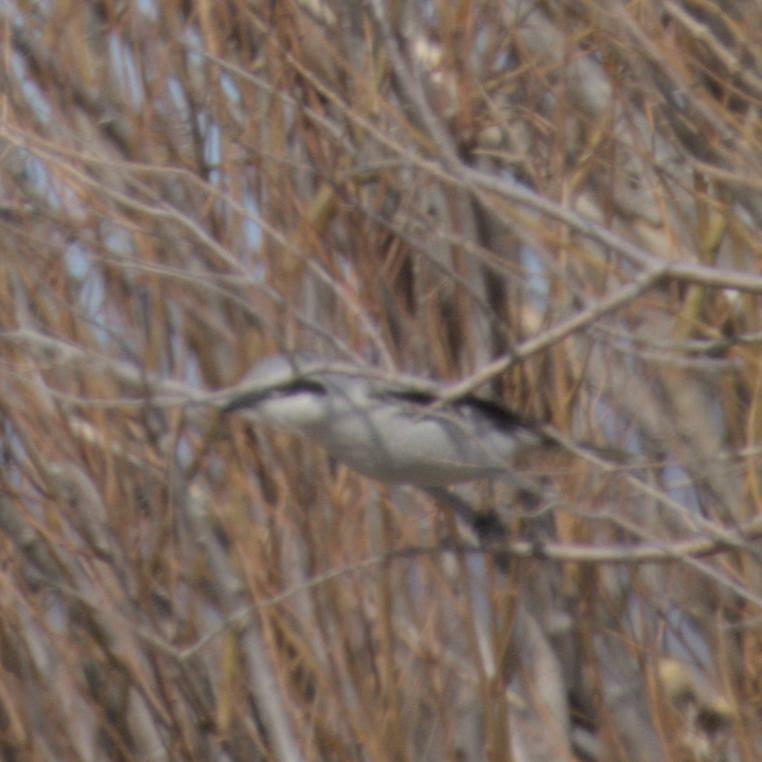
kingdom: Animalia
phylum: Chordata
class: Aves
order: Passeriformes
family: Laniidae
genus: Lanius
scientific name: Lanius borealis
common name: Northern shrike
